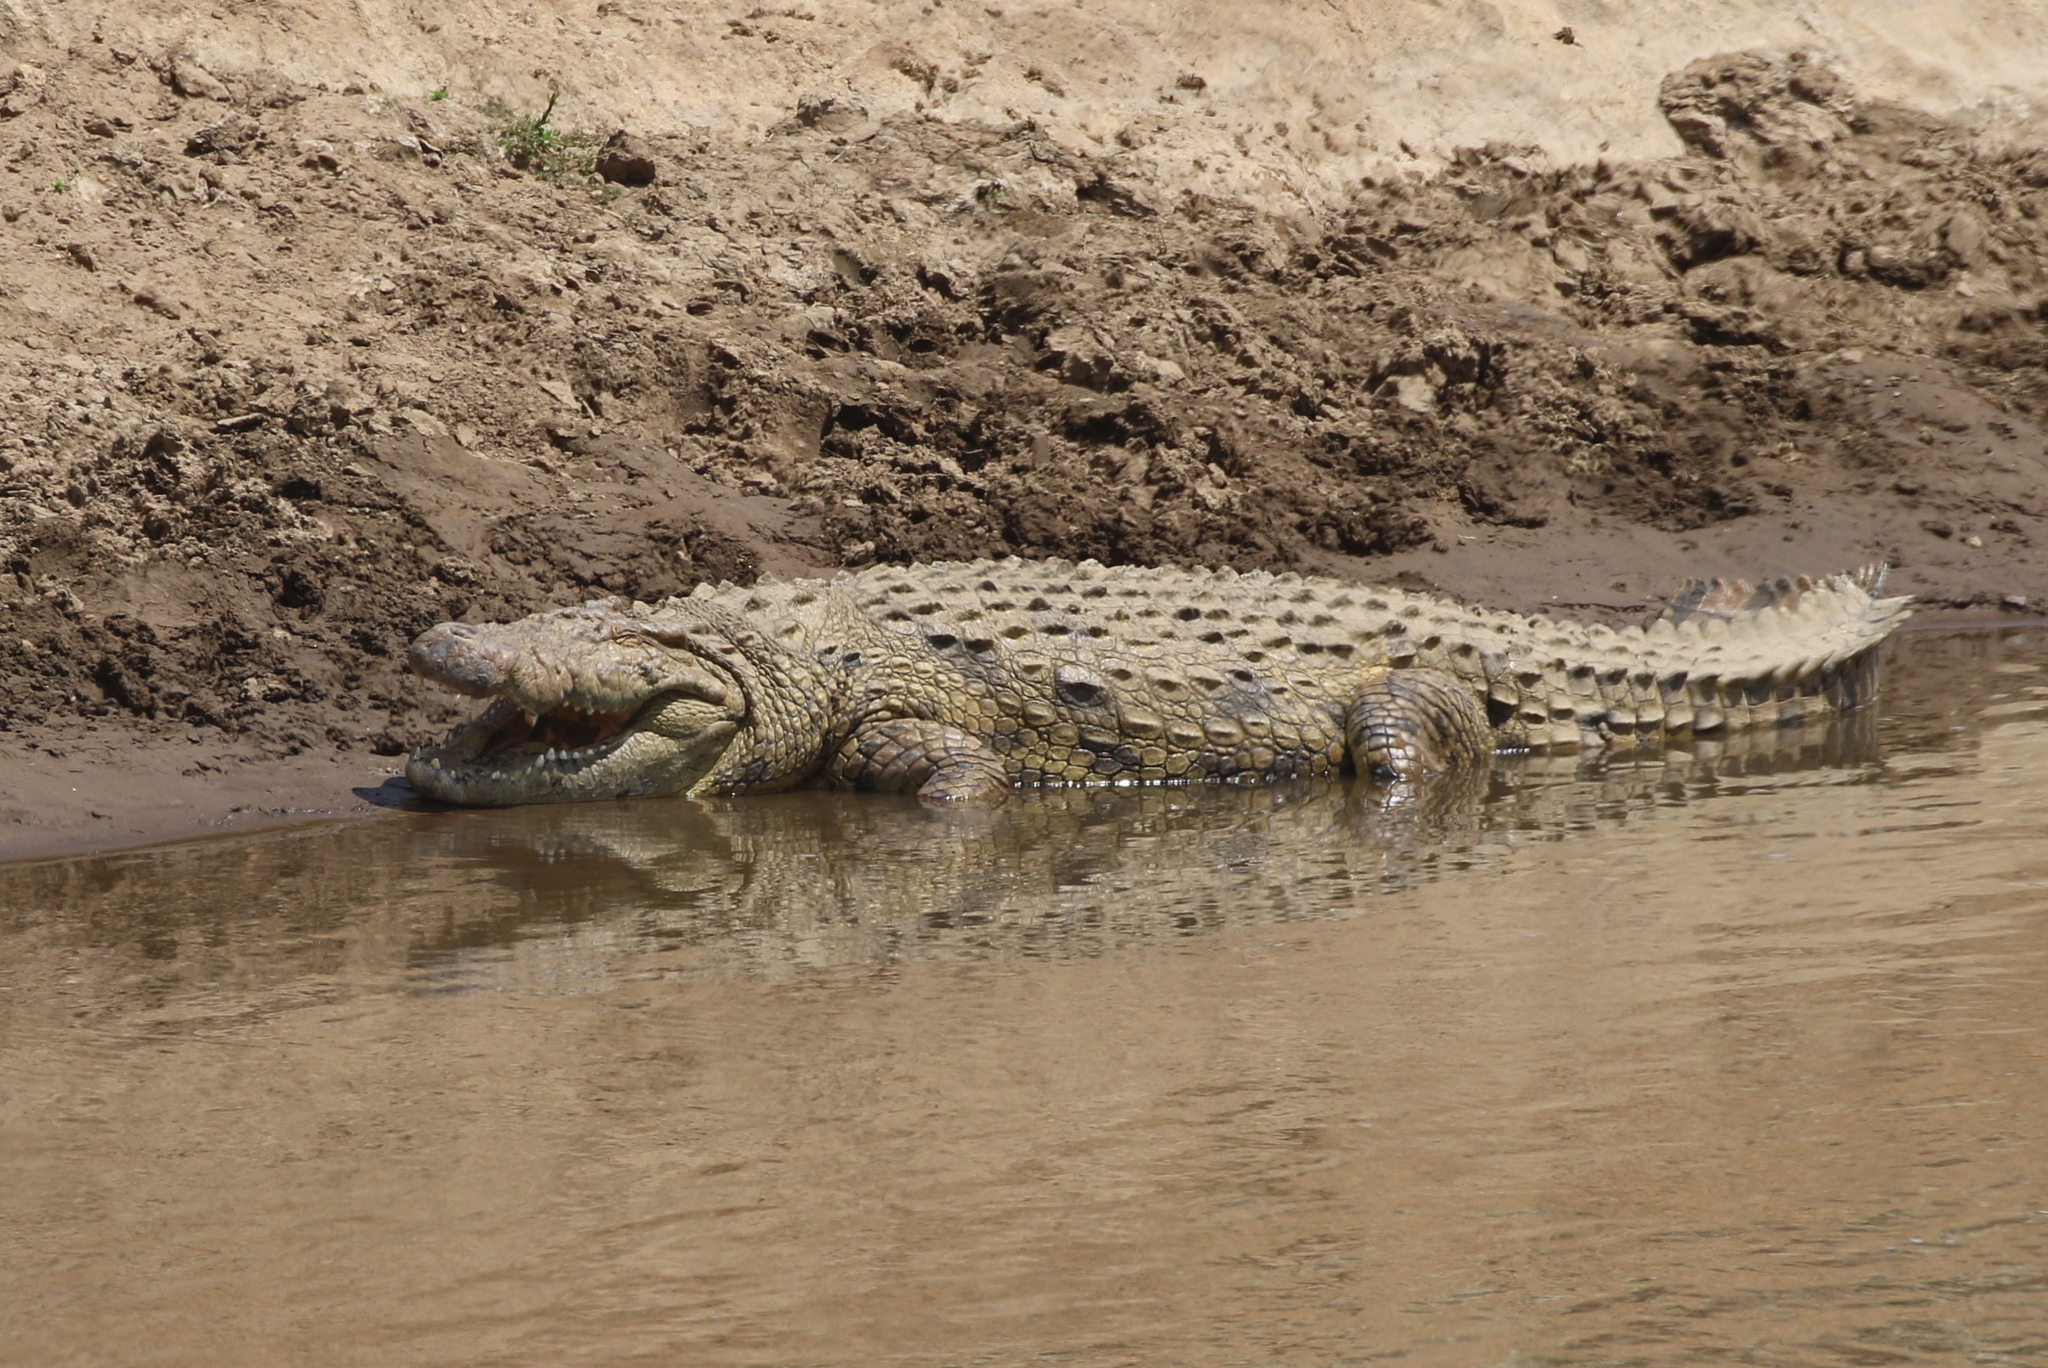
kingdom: Animalia
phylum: Chordata
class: Crocodylia
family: Crocodylidae
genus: Crocodylus
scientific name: Crocodylus niloticus
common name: Nile crocodile
